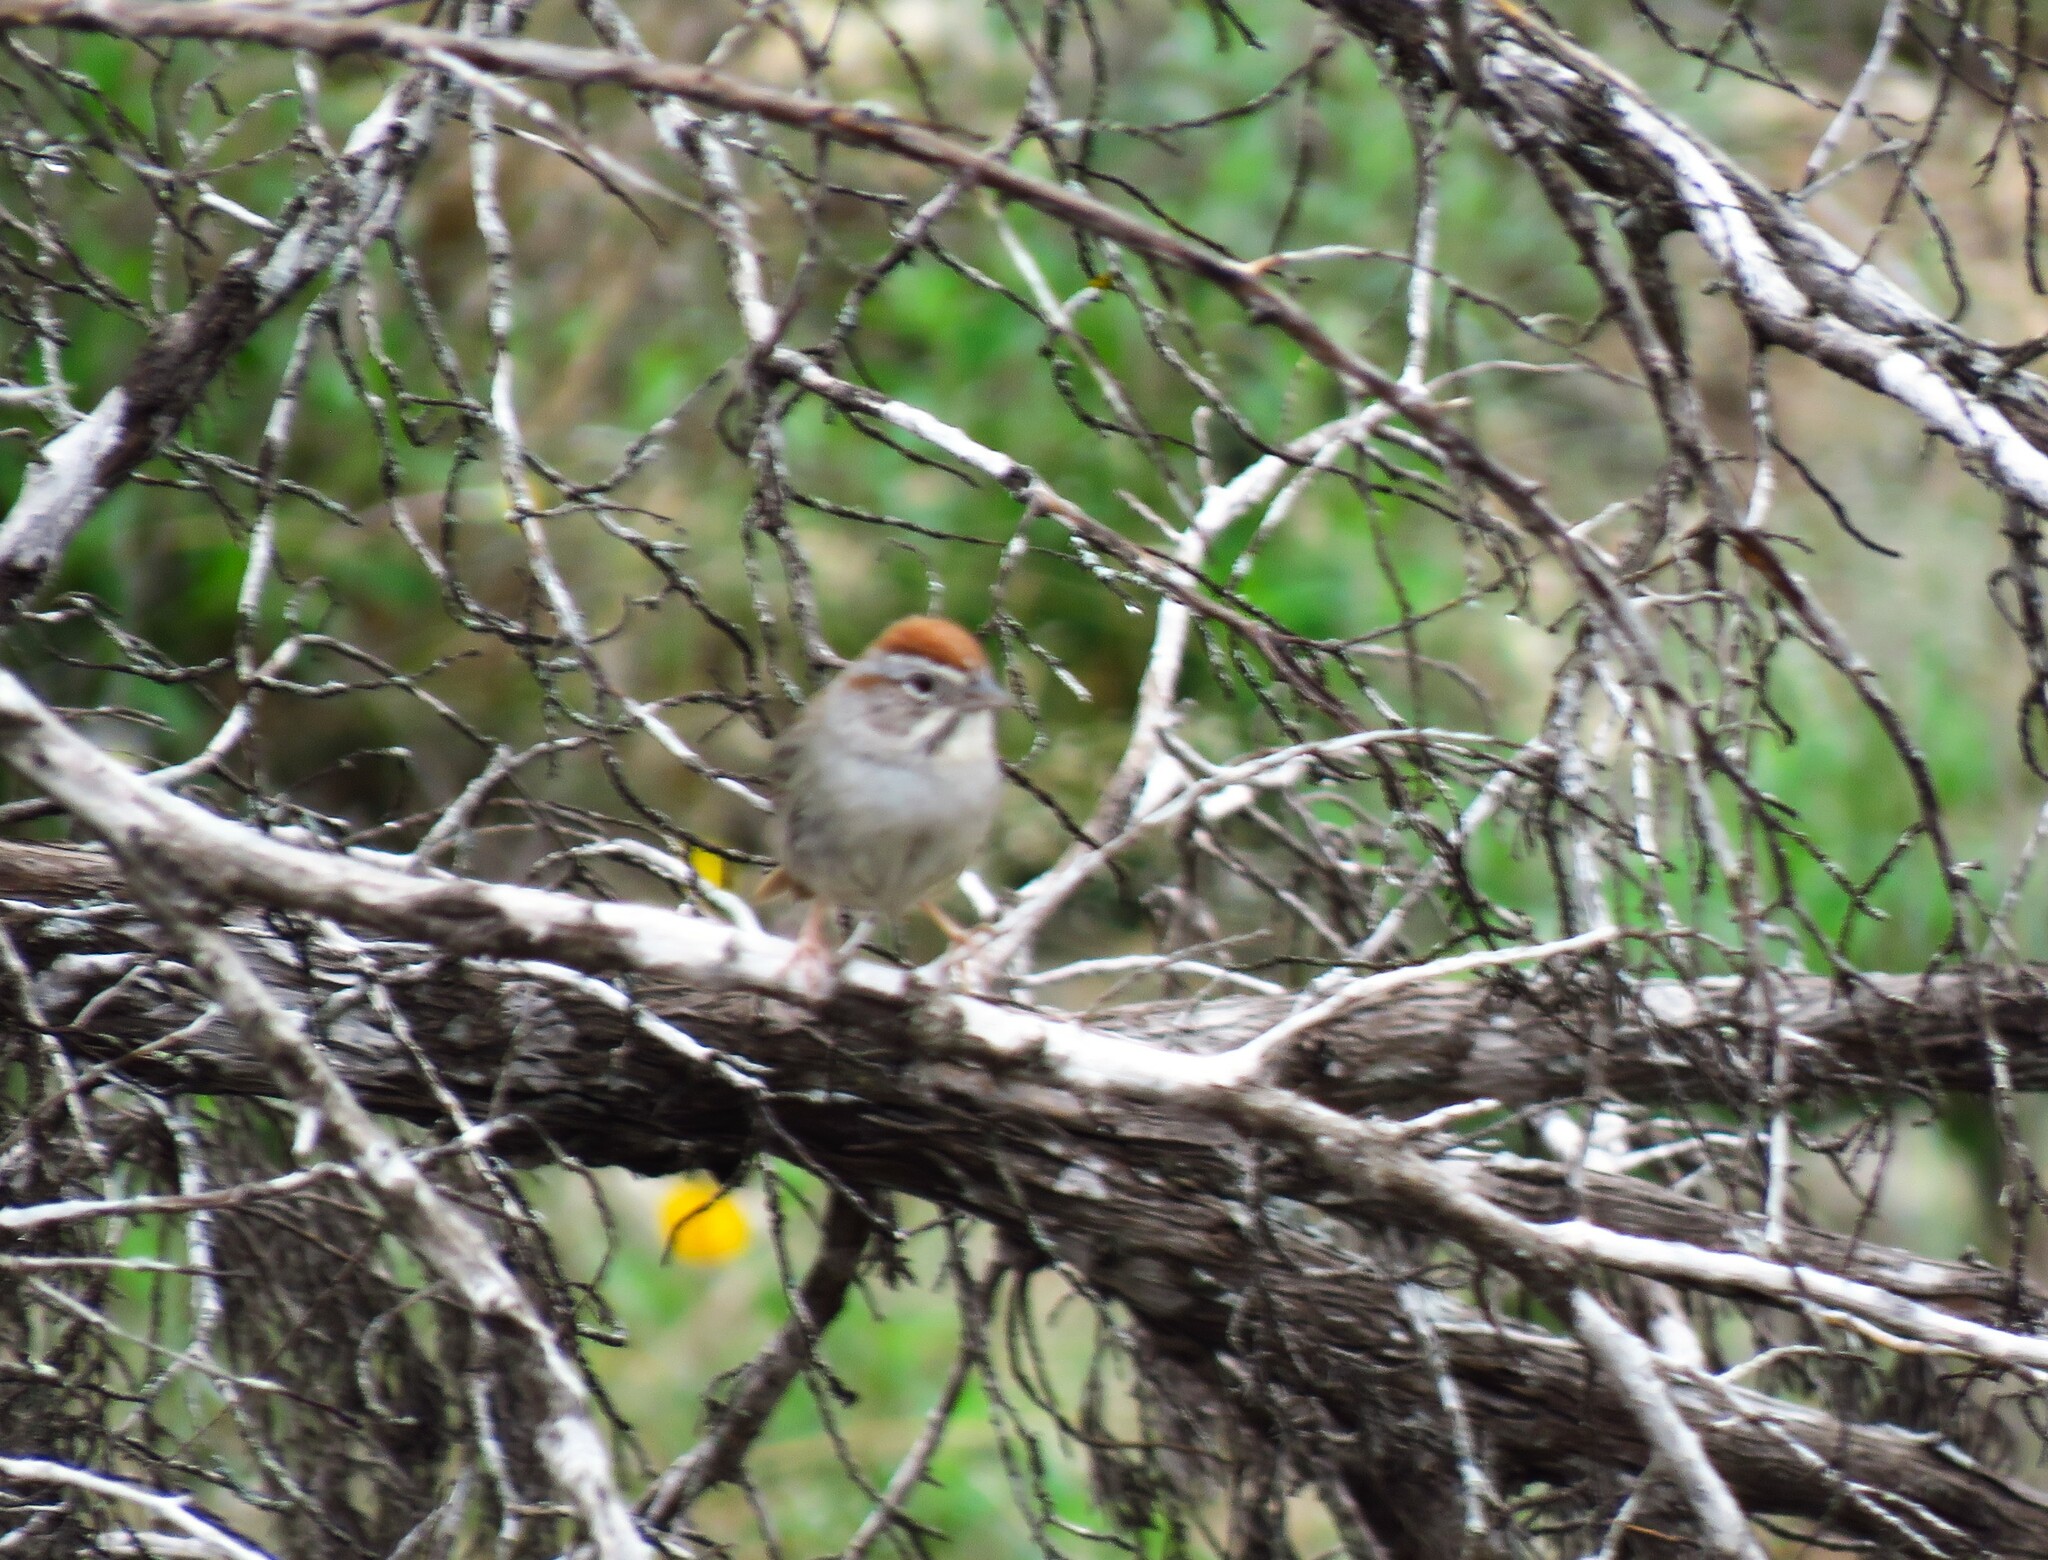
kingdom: Animalia
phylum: Chordata
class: Aves
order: Passeriformes
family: Passerellidae
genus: Aimophila
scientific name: Aimophila ruficeps
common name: Rufous-crowned sparrow
